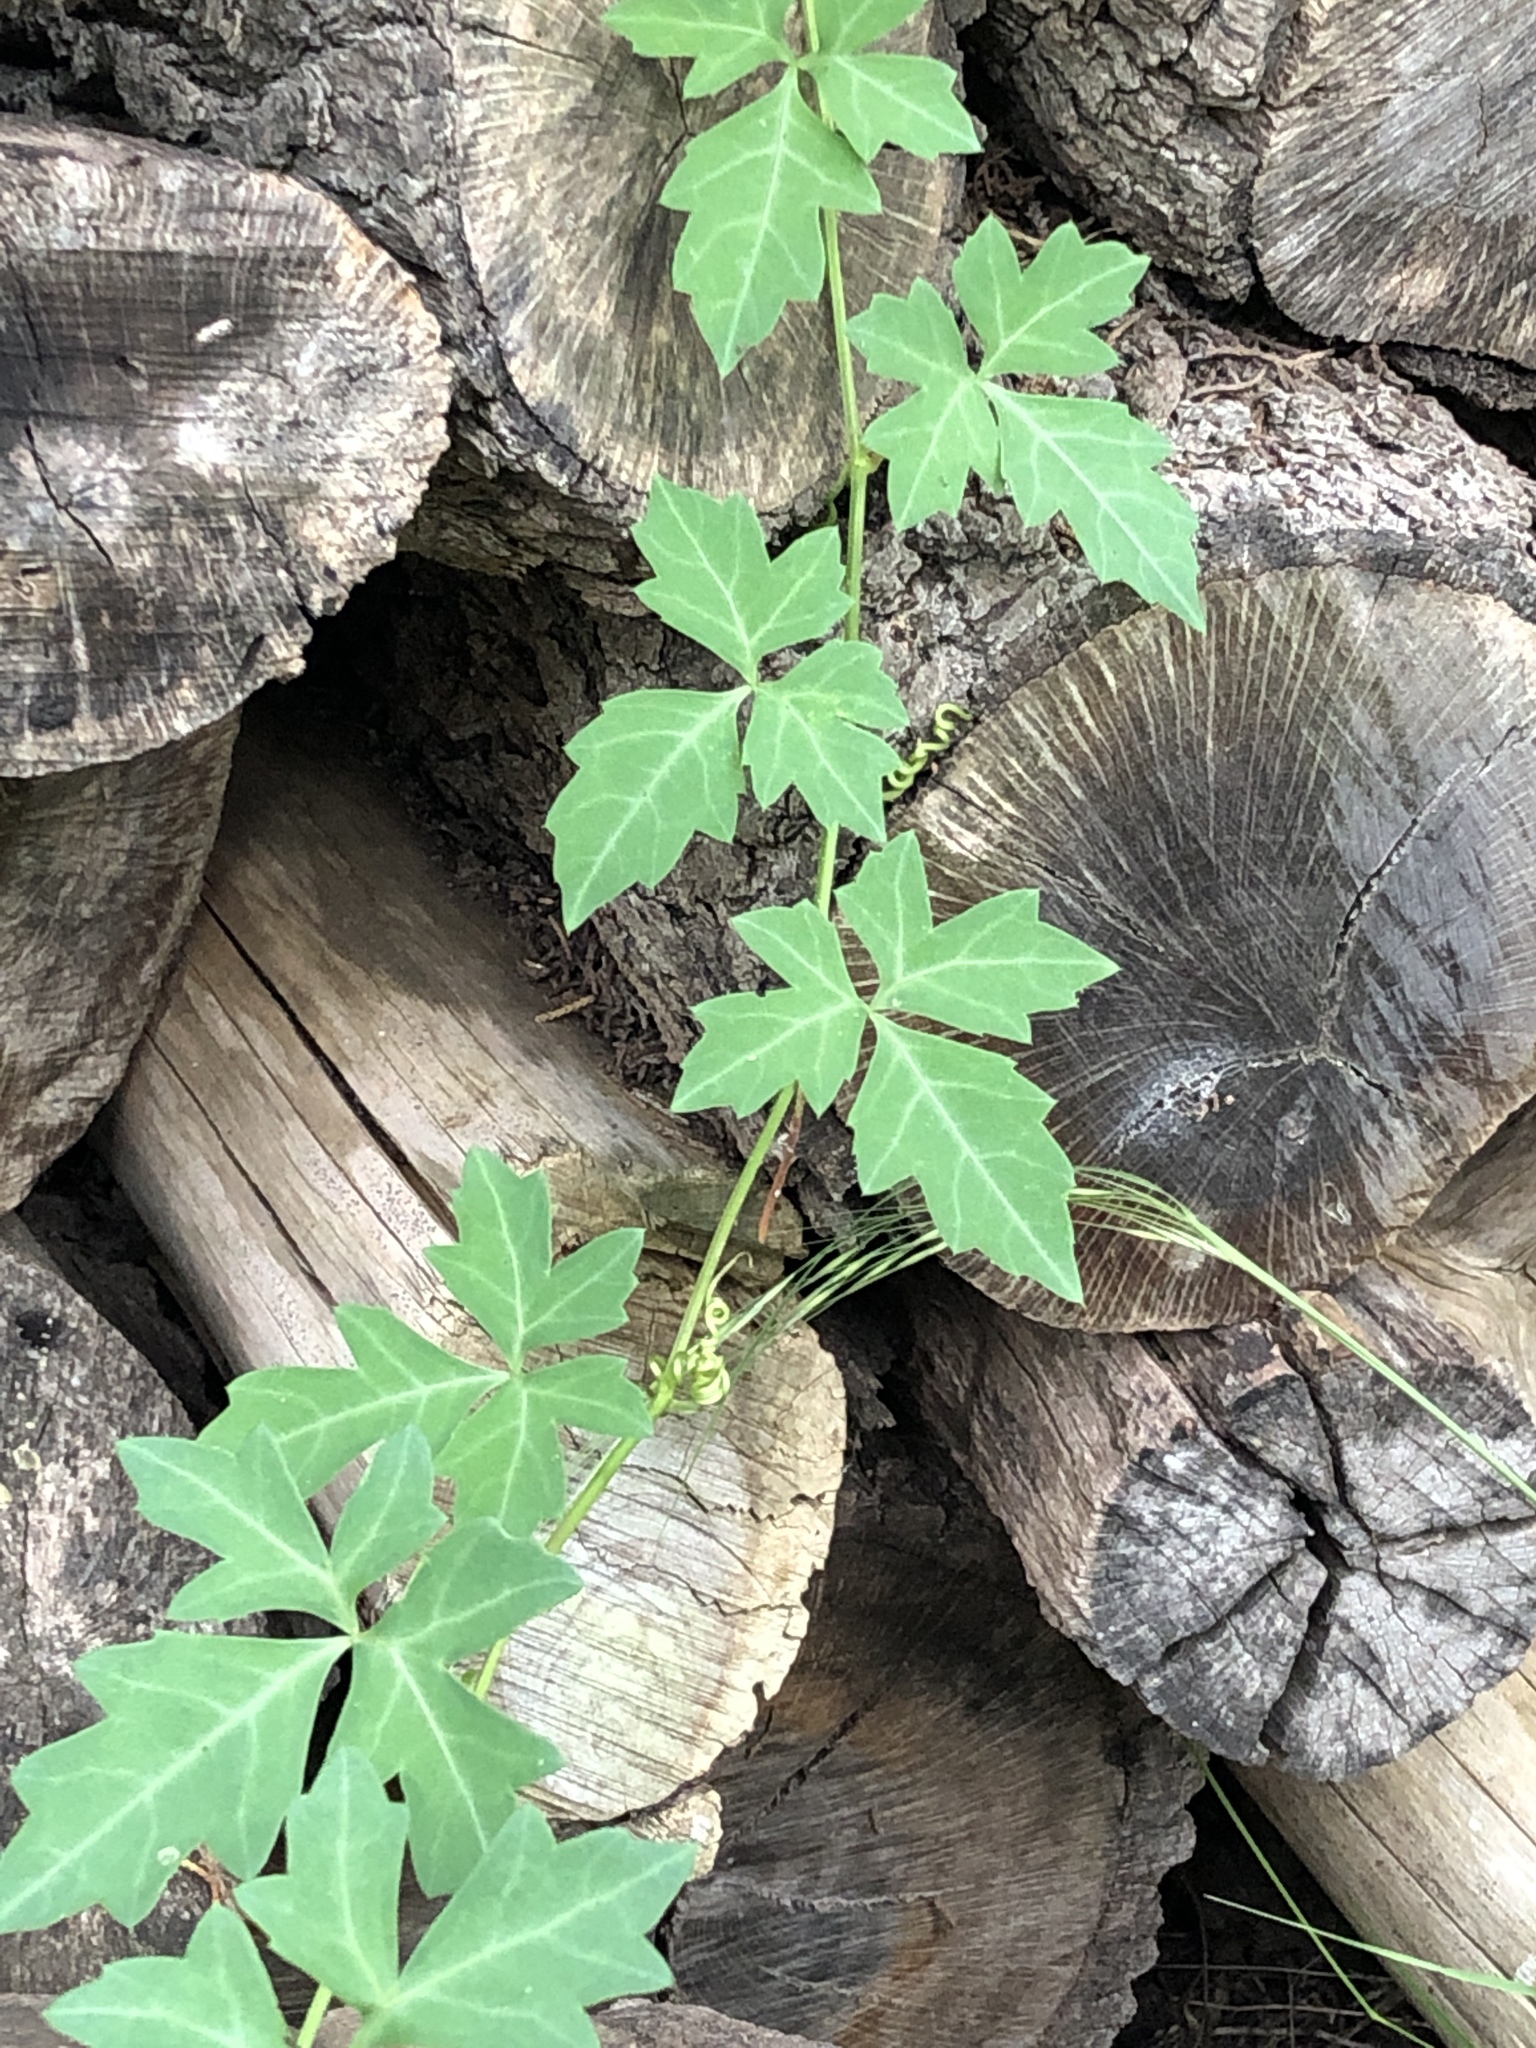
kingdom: Plantae
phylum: Tracheophyta
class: Magnoliopsida
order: Vitales
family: Vitaceae
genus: Cissus
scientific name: Cissus trifoliata
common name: Vine-sorrel
